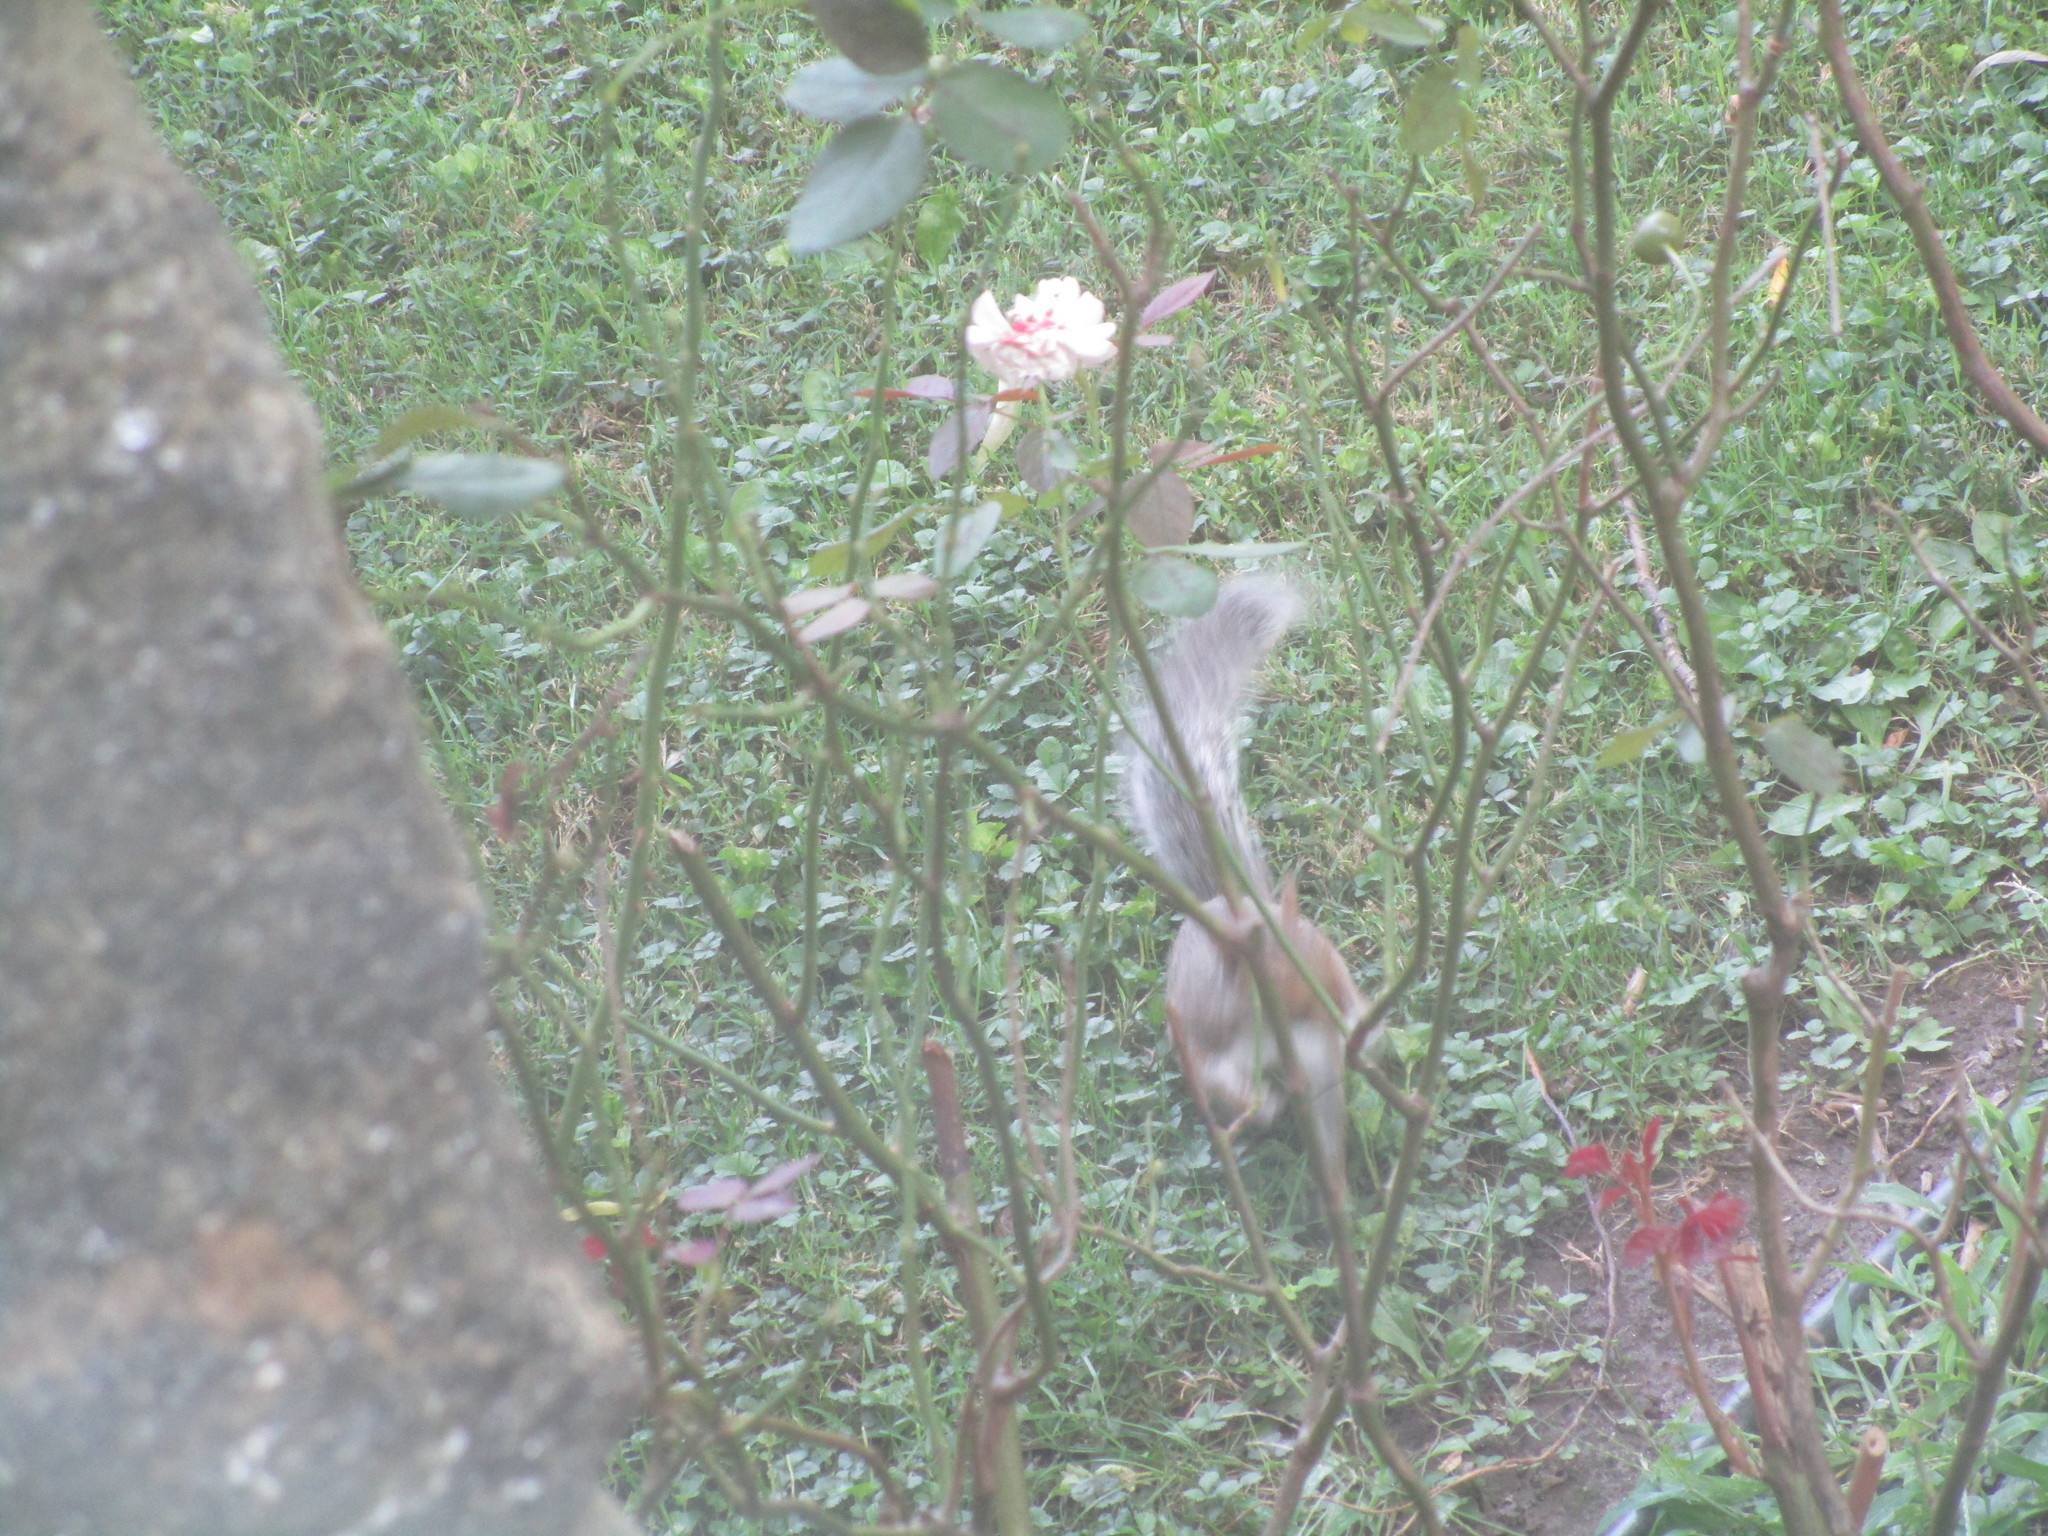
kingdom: Animalia
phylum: Chordata
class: Mammalia
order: Rodentia
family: Sciuridae
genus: Sciurus
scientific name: Sciurus carolinensis
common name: Eastern gray squirrel
